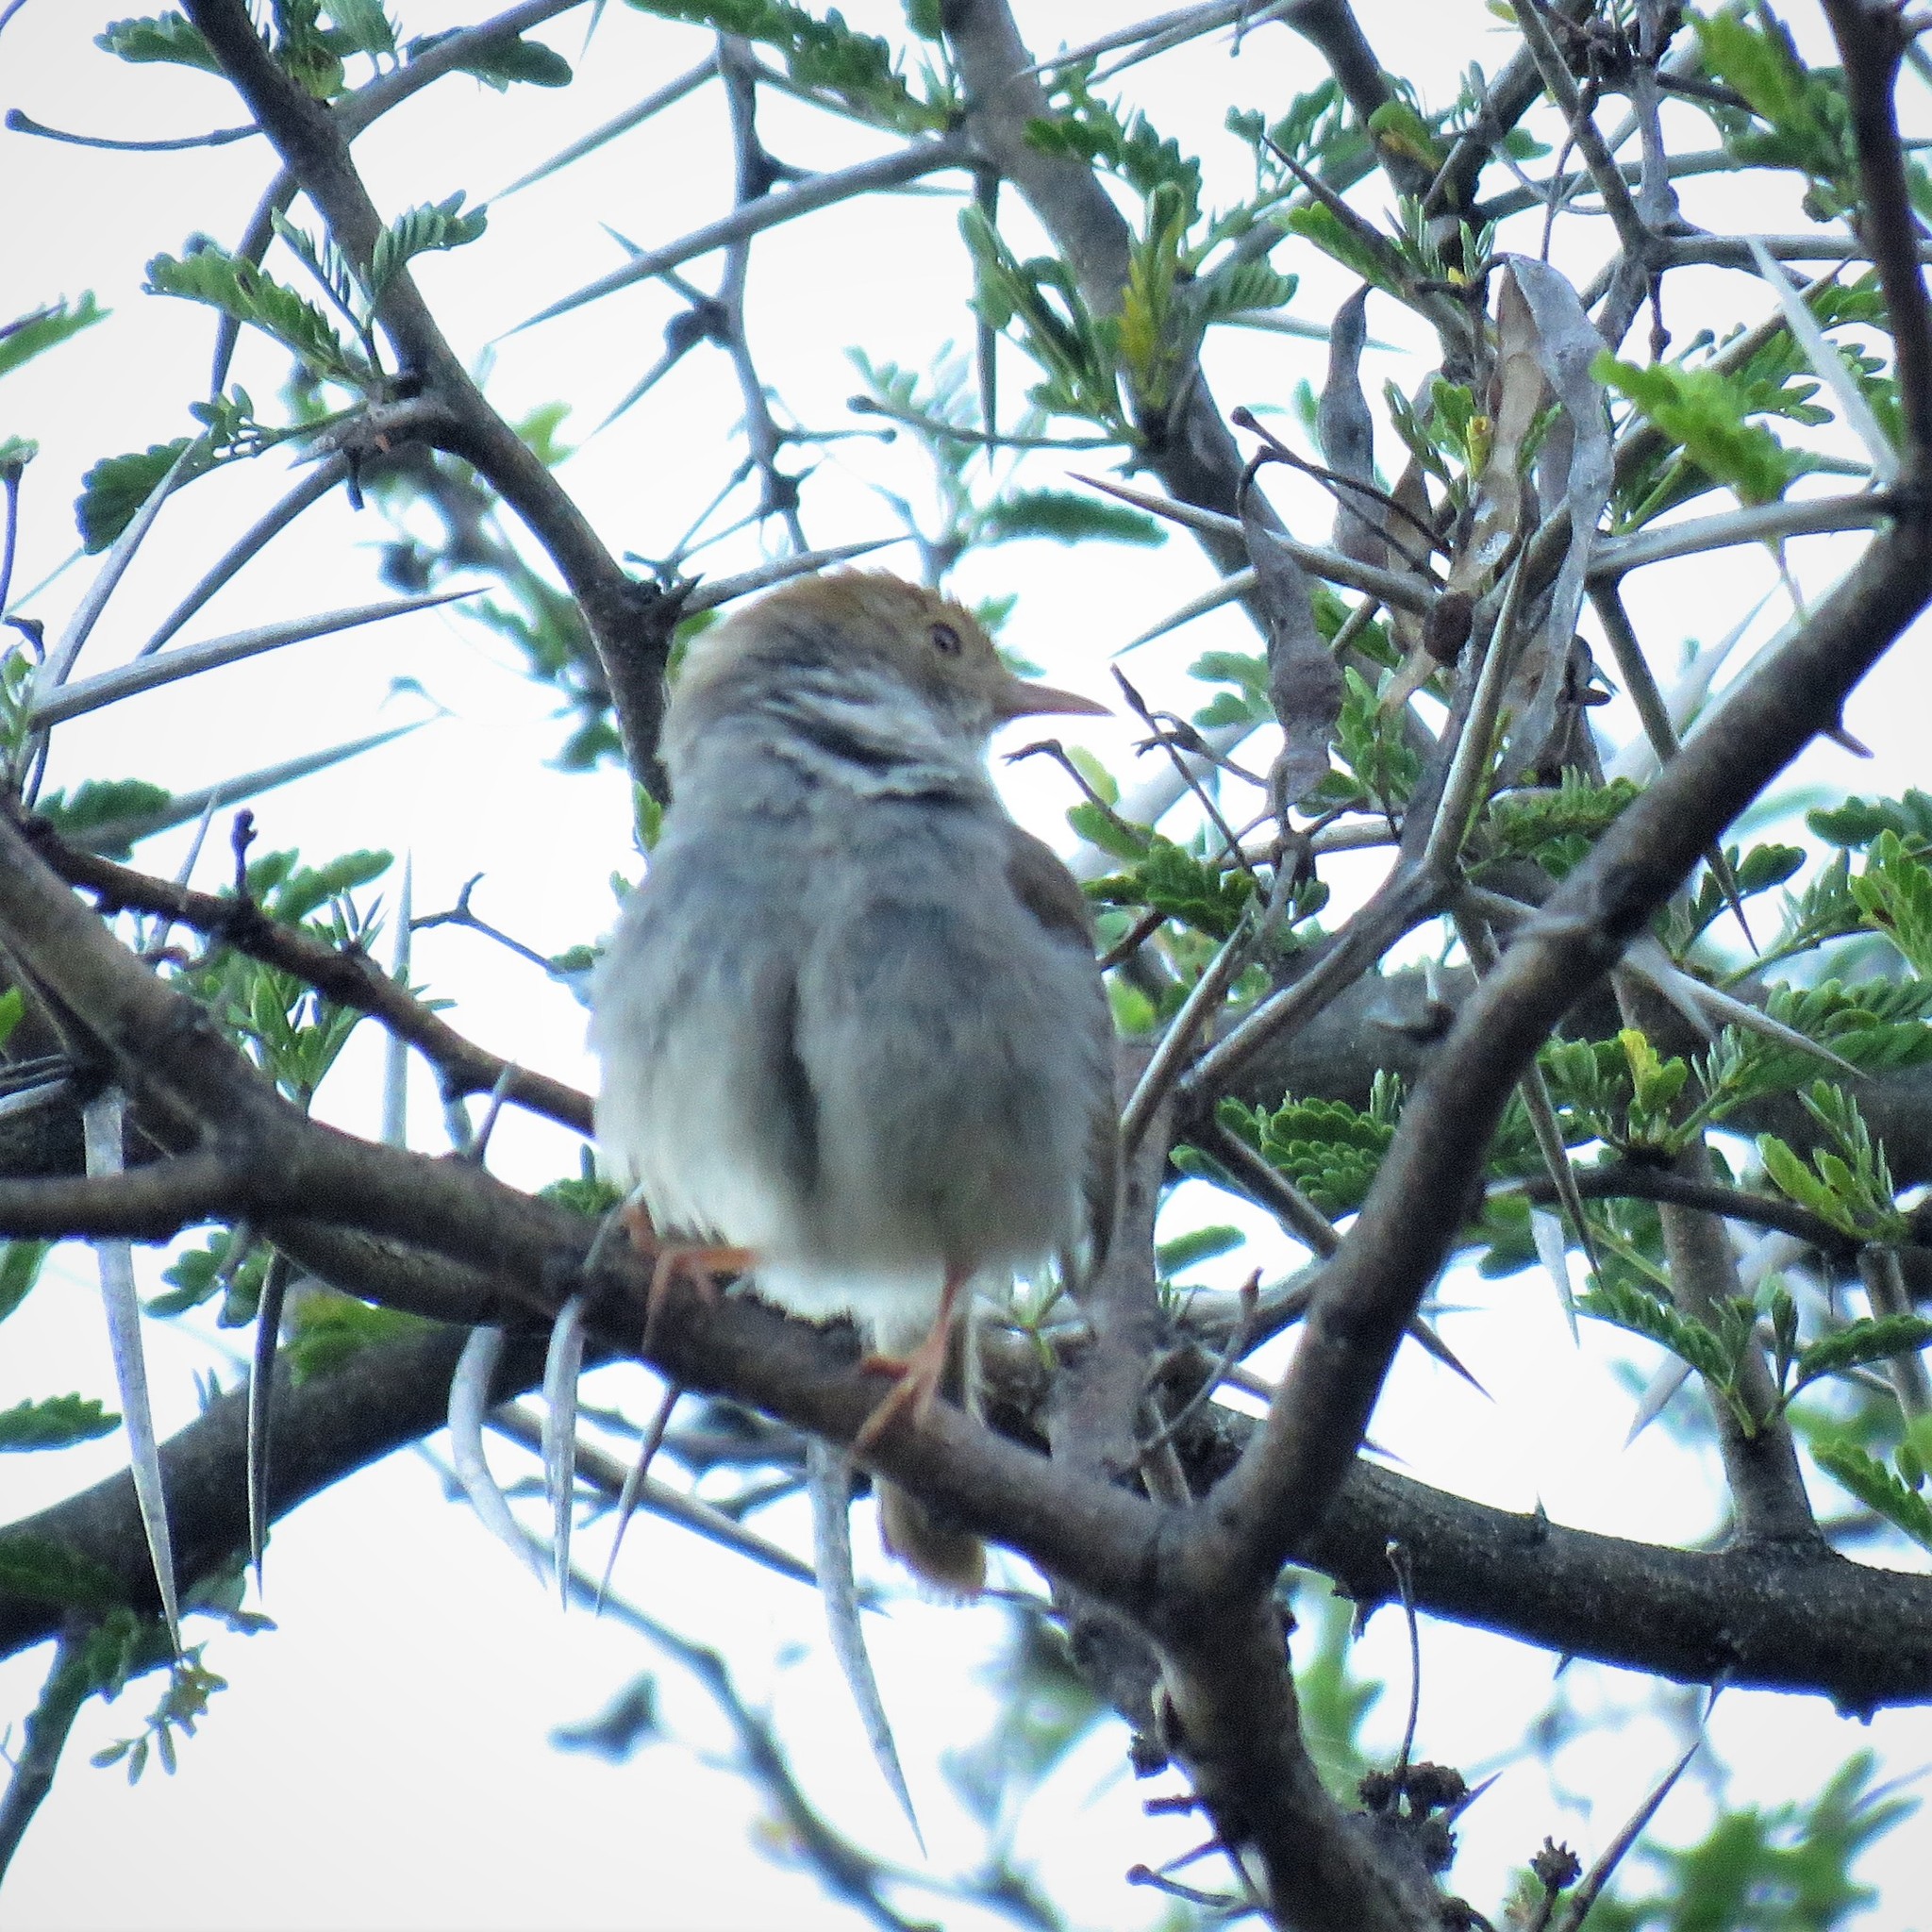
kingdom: Animalia
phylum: Chordata
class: Aves
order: Passeriformes
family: Cisticolidae
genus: Cisticola
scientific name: Cisticola fulvicapilla
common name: Neddicky
